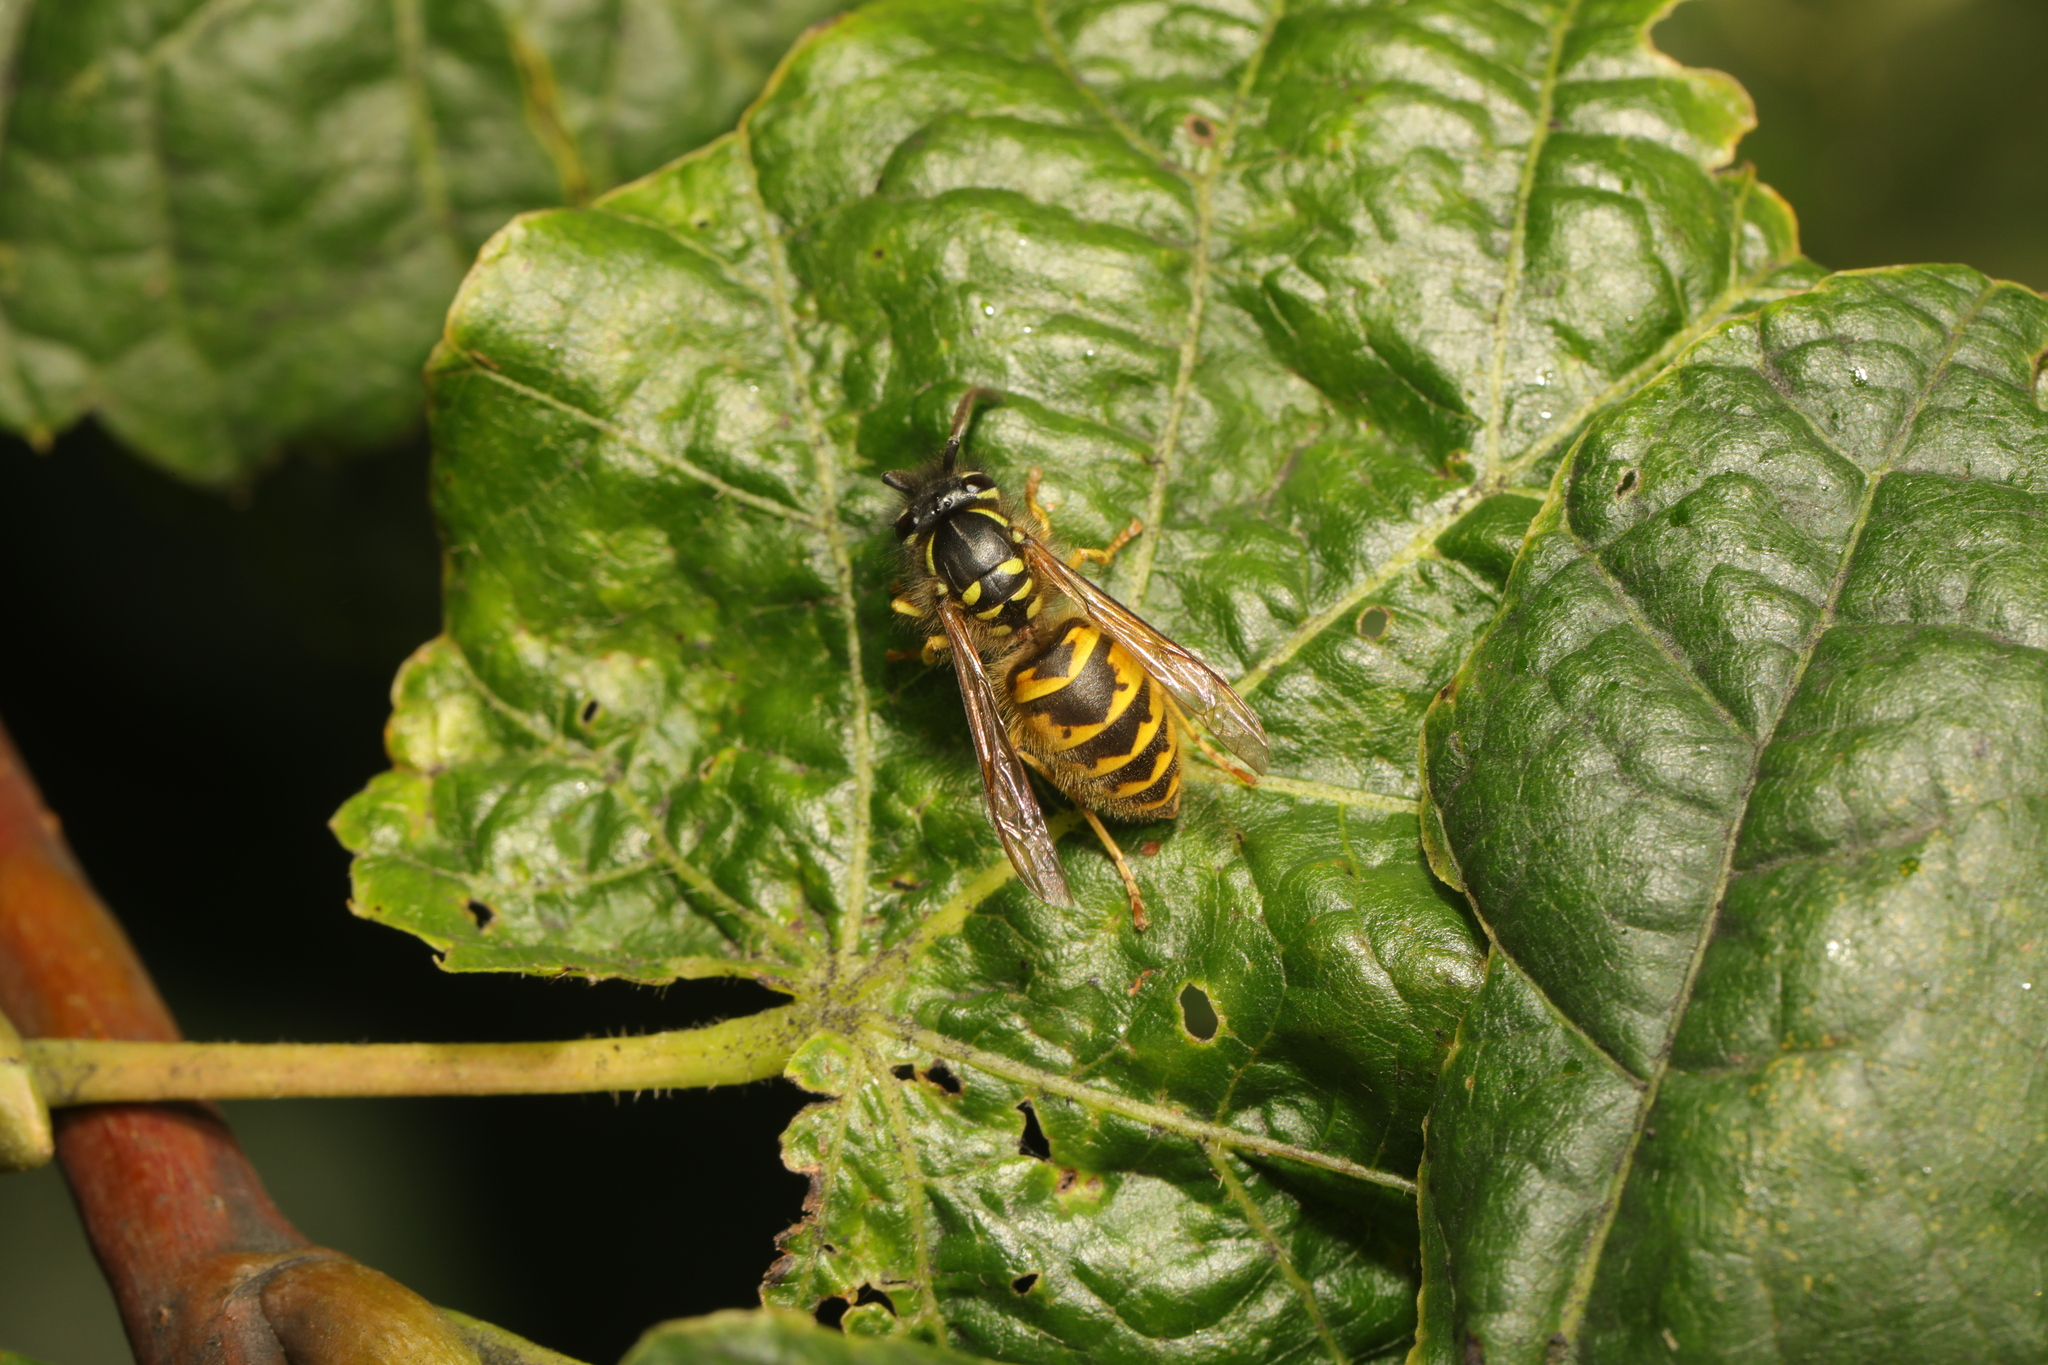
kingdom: Animalia
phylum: Arthropoda
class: Insecta
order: Hymenoptera
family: Vespidae
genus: Vespula
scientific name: Vespula vulgaris
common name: Common wasp
